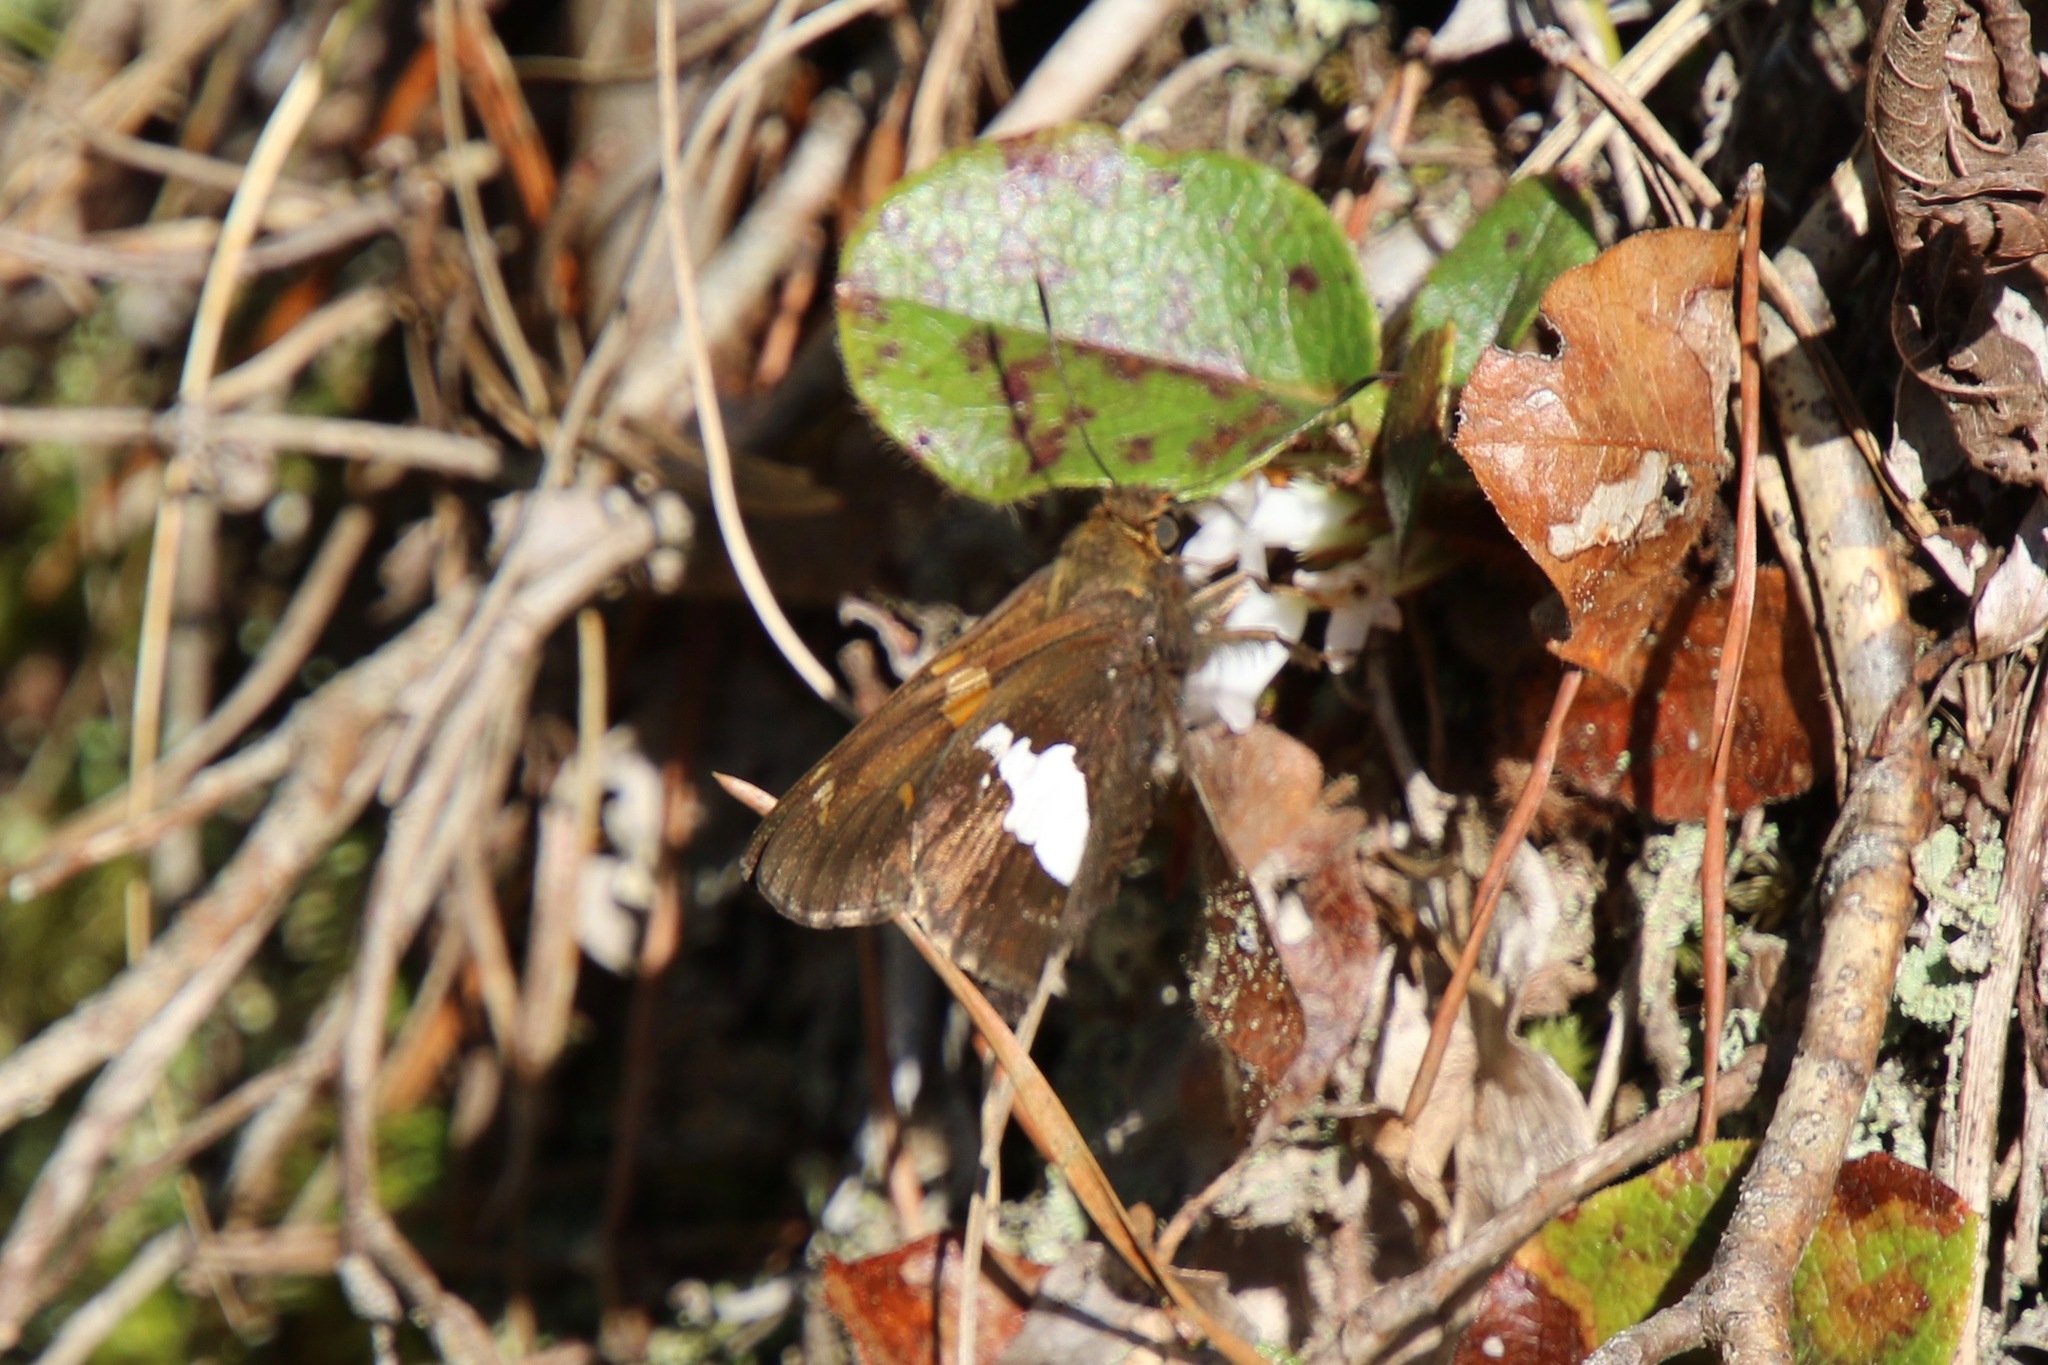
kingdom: Animalia
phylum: Arthropoda
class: Insecta
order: Lepidoptera
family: Hesperiidae
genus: Epargyreus
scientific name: Epargyreus clarus
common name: Silver-spotted skipper
